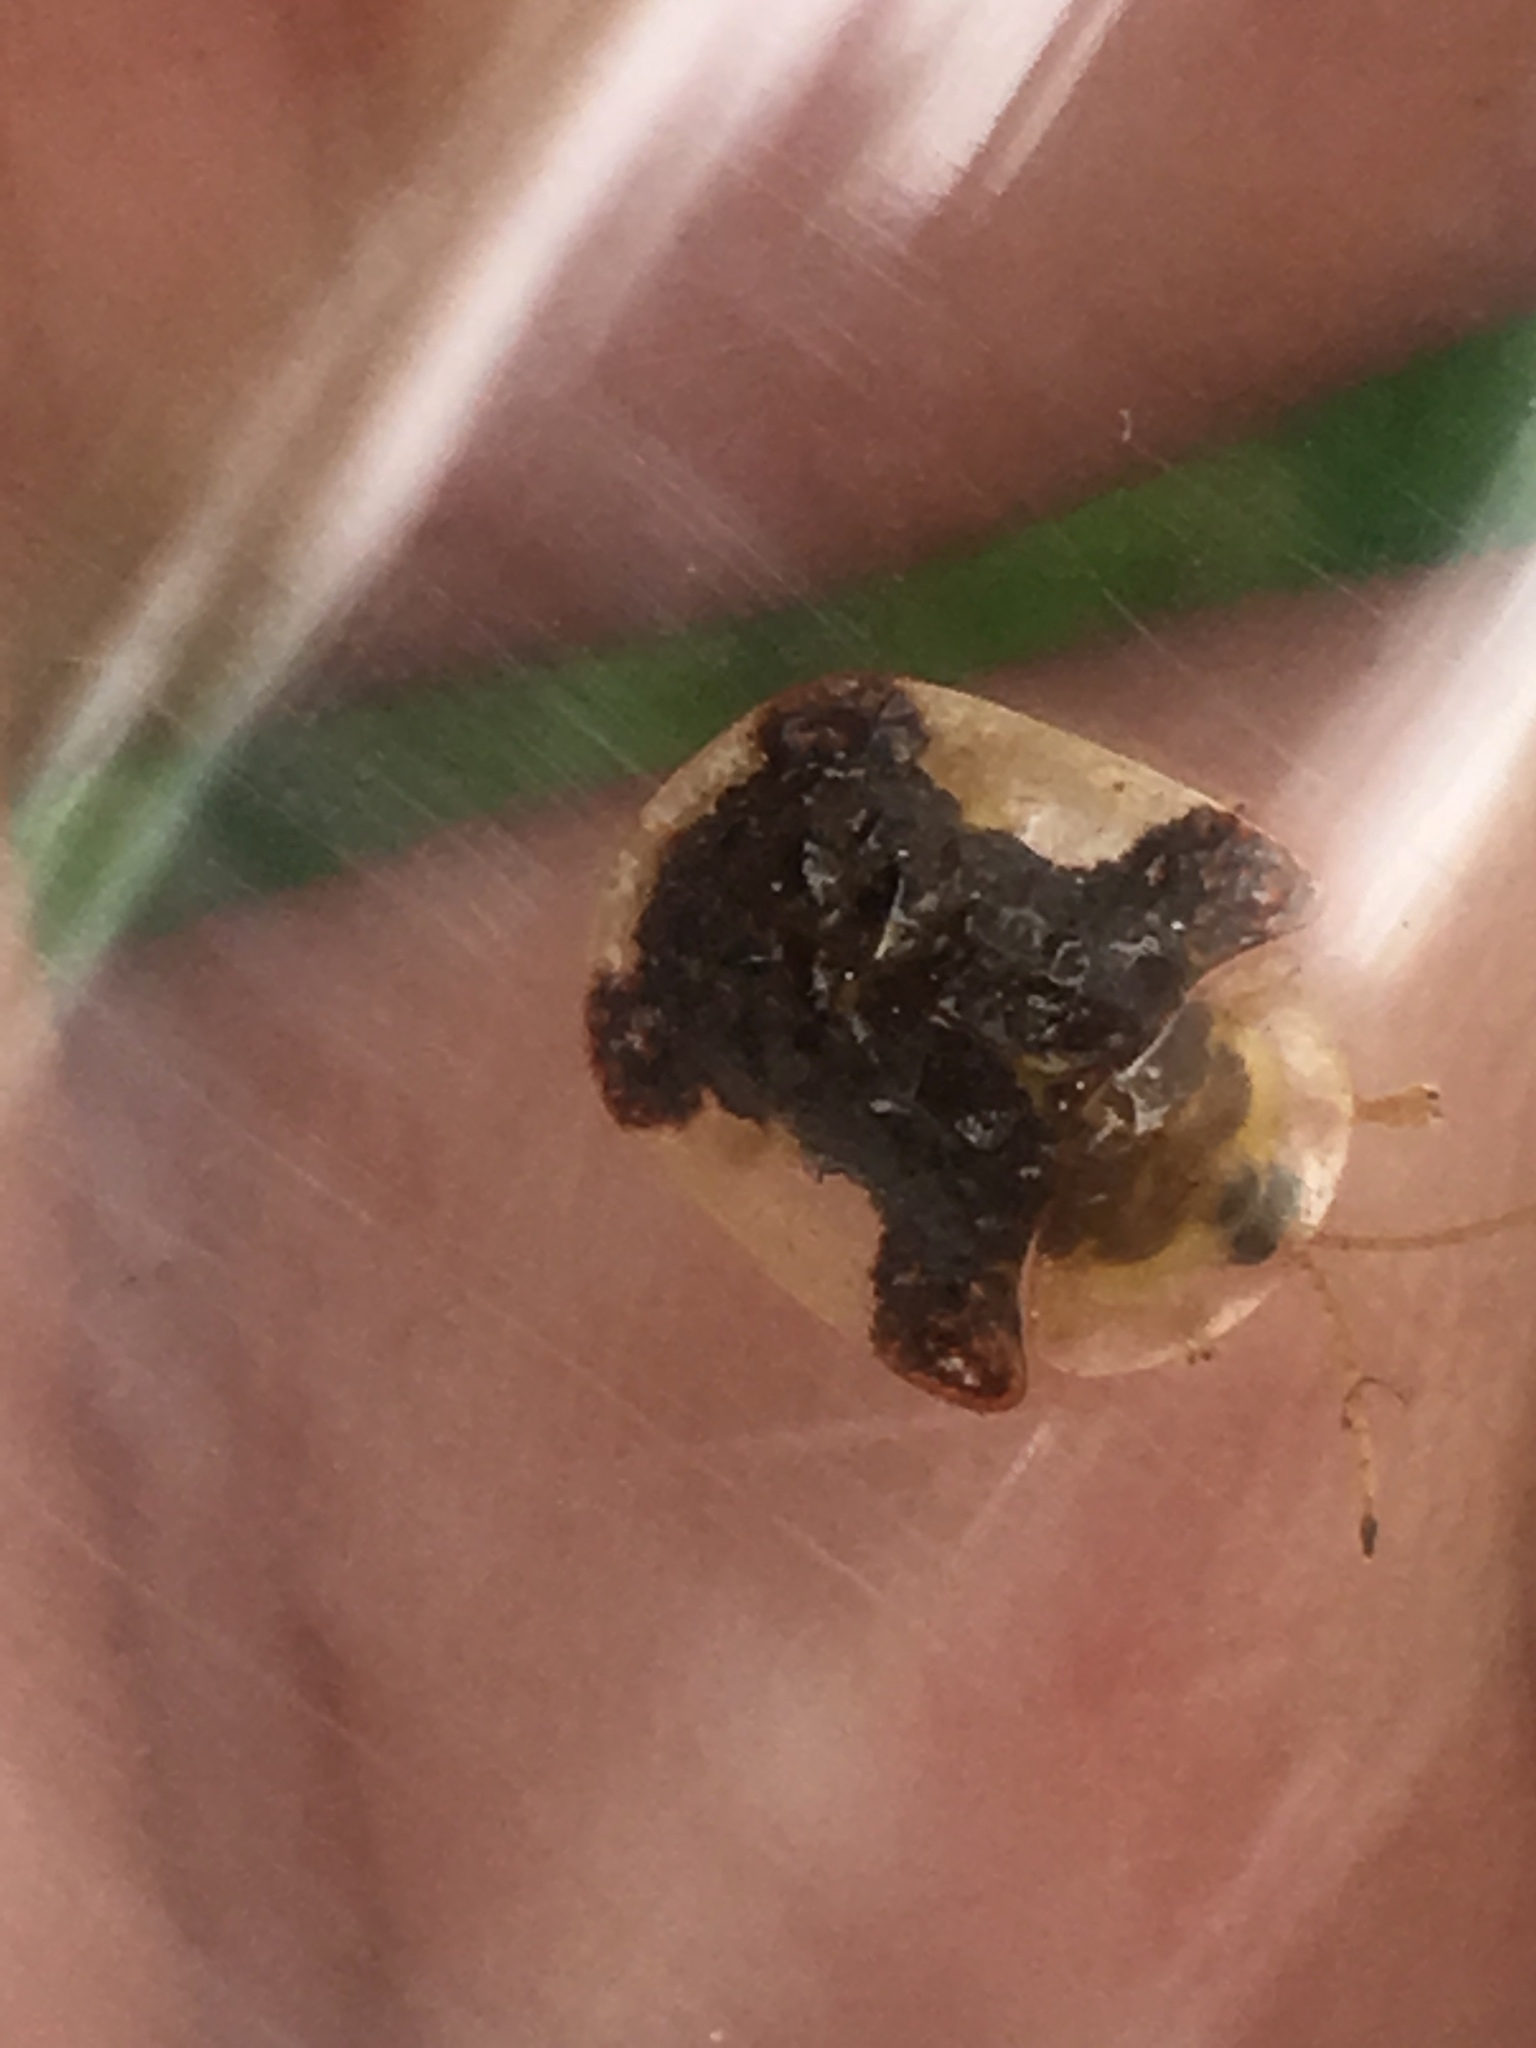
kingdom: Animalia
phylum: Arthropoda
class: Insecta
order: Coleoptera
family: Chrysomelidae
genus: Helocassis
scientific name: Helocassis clavata
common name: Clavate tortoise beetle
